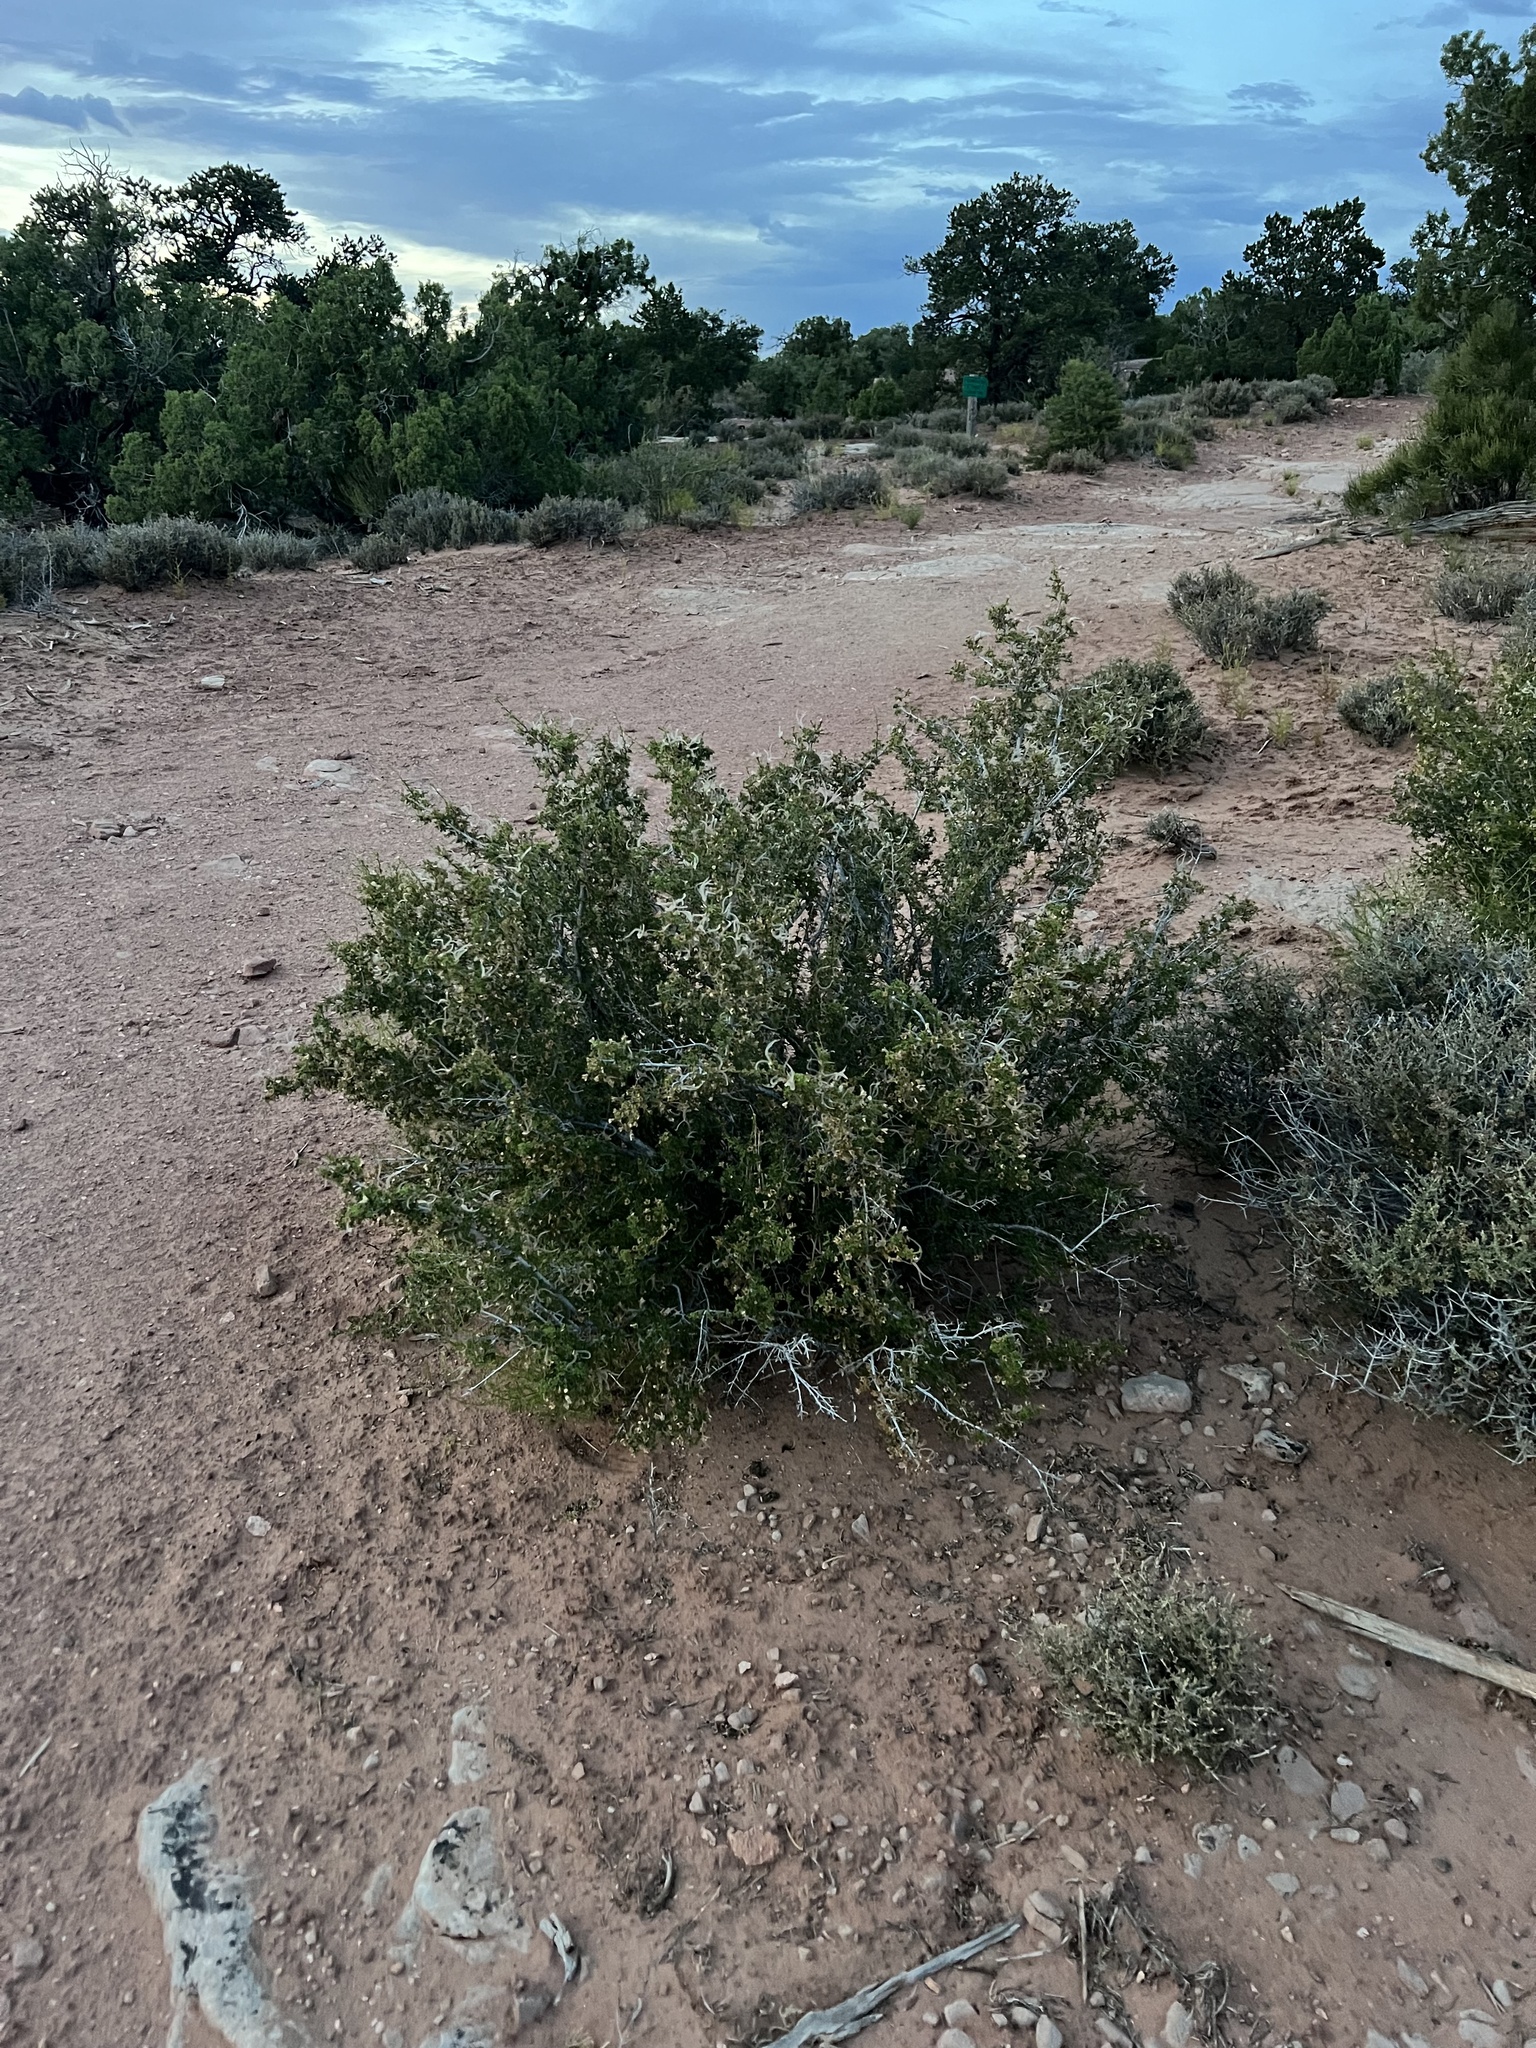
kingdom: Plantae
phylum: Tracheophyta
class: Magnoliopsida
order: Rosales
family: Rosaceae
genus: Purshia
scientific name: Purshia stansburiana
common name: Stansbury's cliffrose
